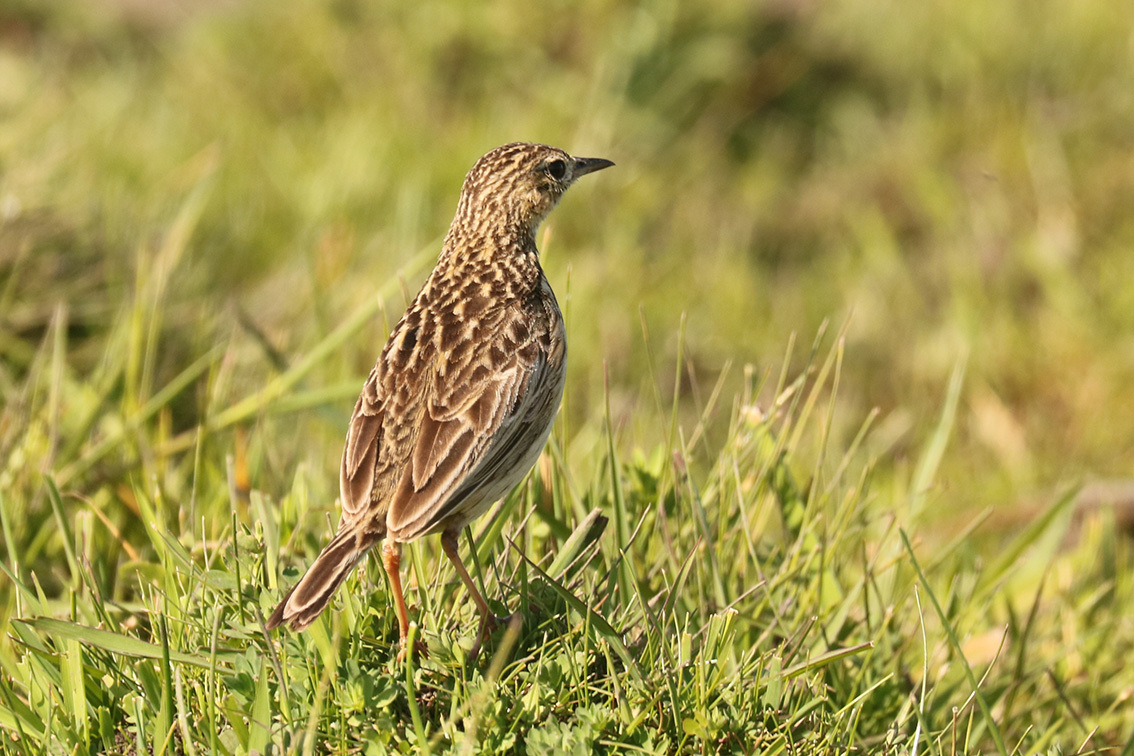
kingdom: Animalia
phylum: Chordata
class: Aves
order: Passeriformes
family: Motacillidae
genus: Anthus
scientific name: Anthus chii
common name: Yellowish pipit
